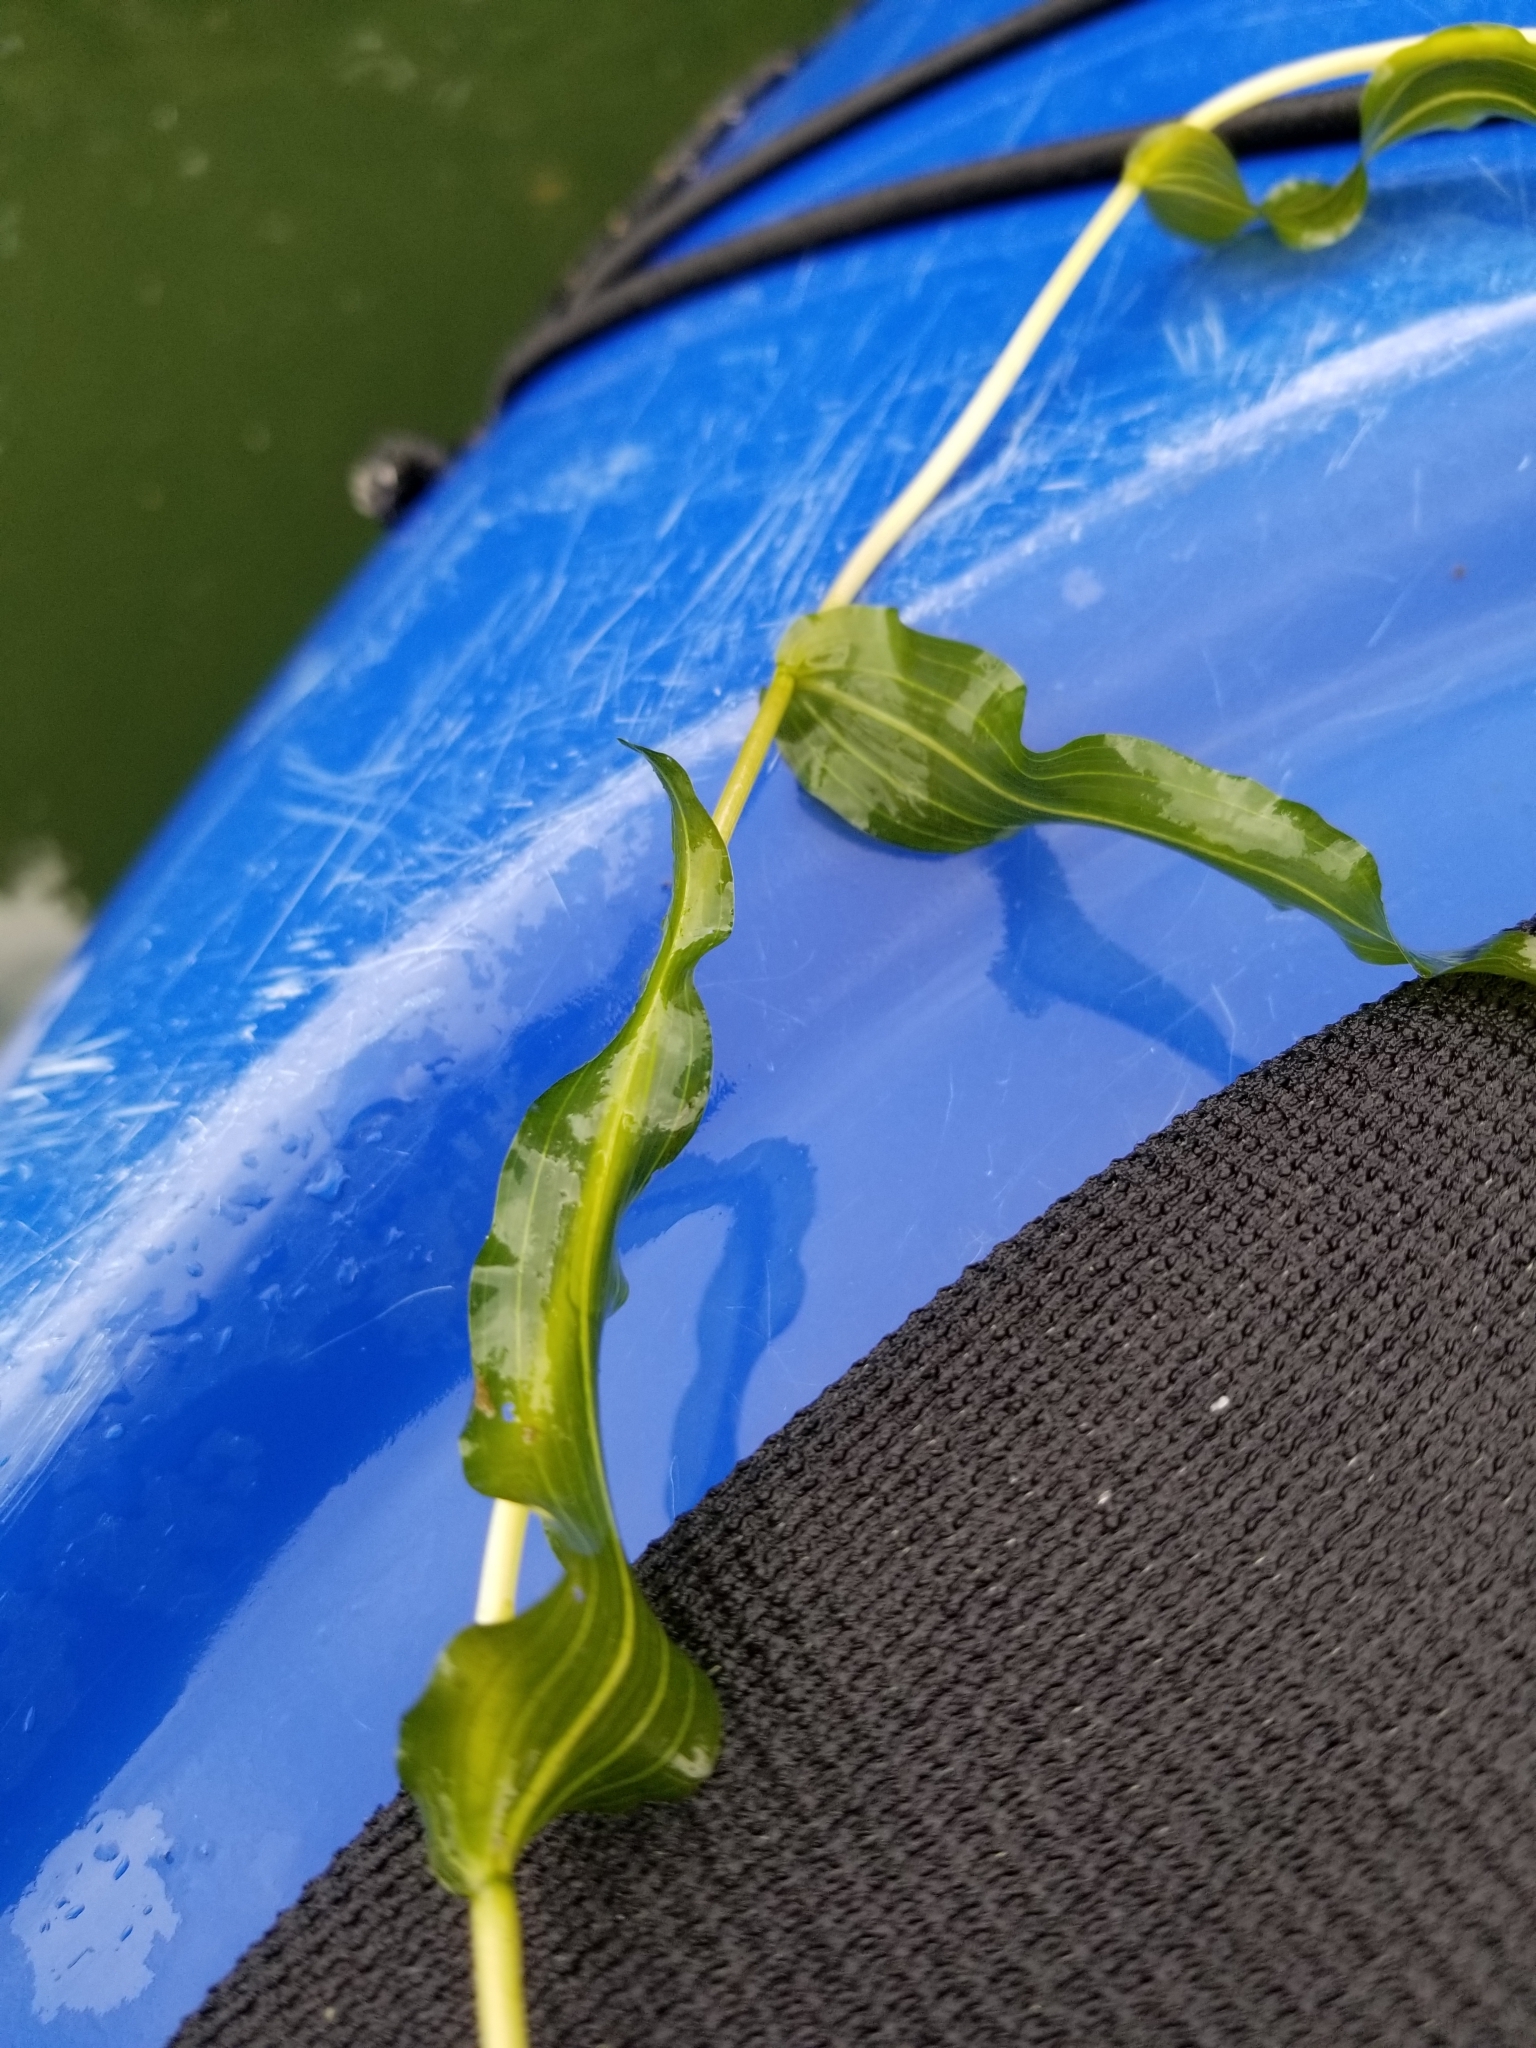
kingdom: Plantae
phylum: Tracheophyta
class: Liliopsida
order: Alismatales
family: Potamogetonaceae
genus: Potamogeton
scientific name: Potamogeton richardsonii
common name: Richardson's pondweed
